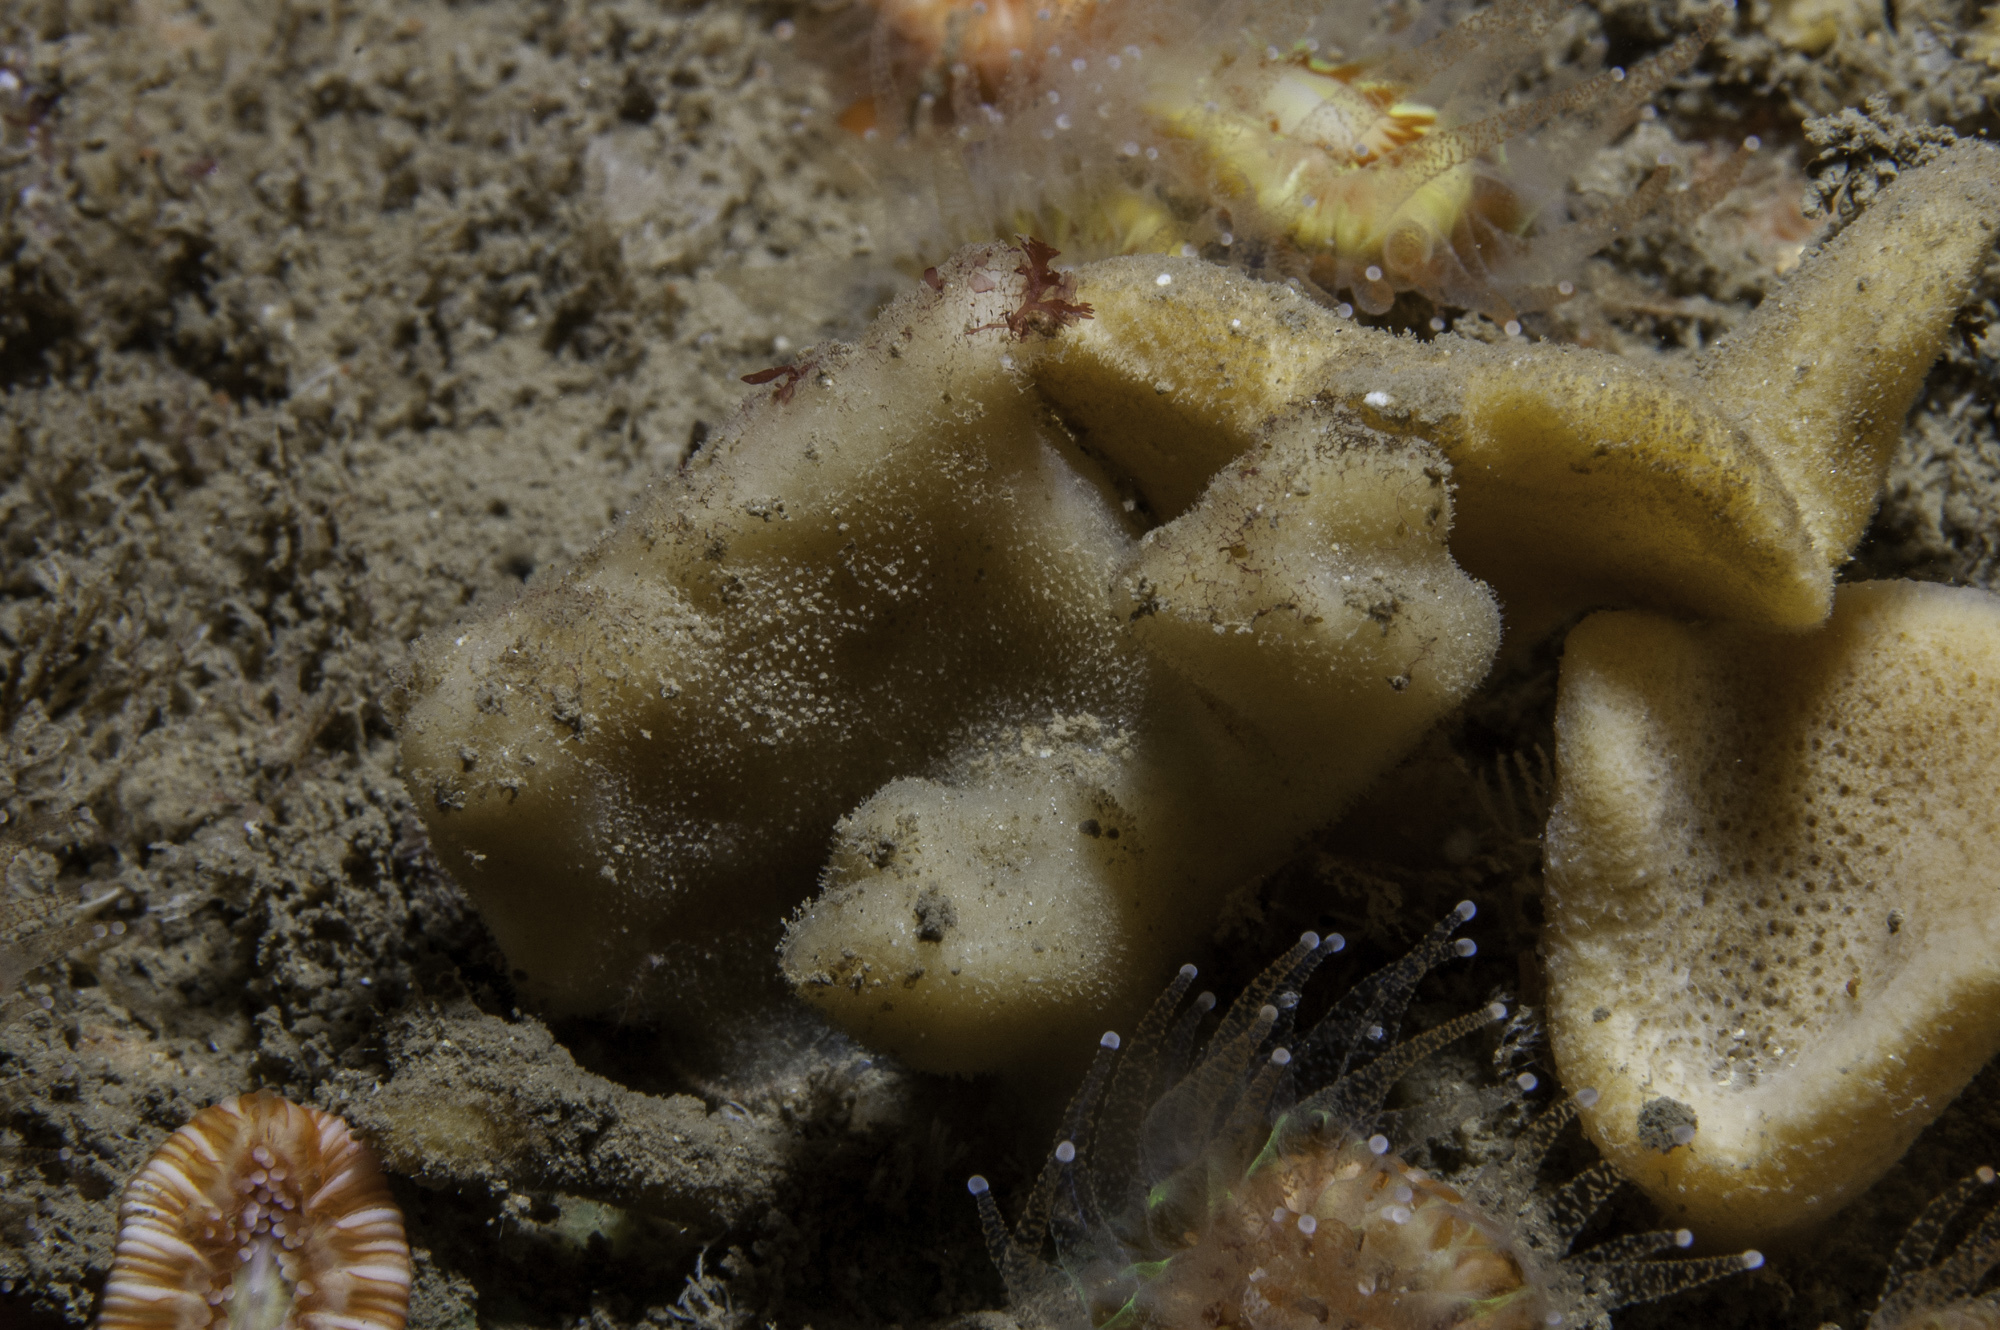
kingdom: Animalia
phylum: Porifera
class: Demospongiae
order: Dendroceratida
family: Dictyodendrillidae
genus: Spongionella
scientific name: Spongionella pulchella
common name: Gorgeous horny sponge
